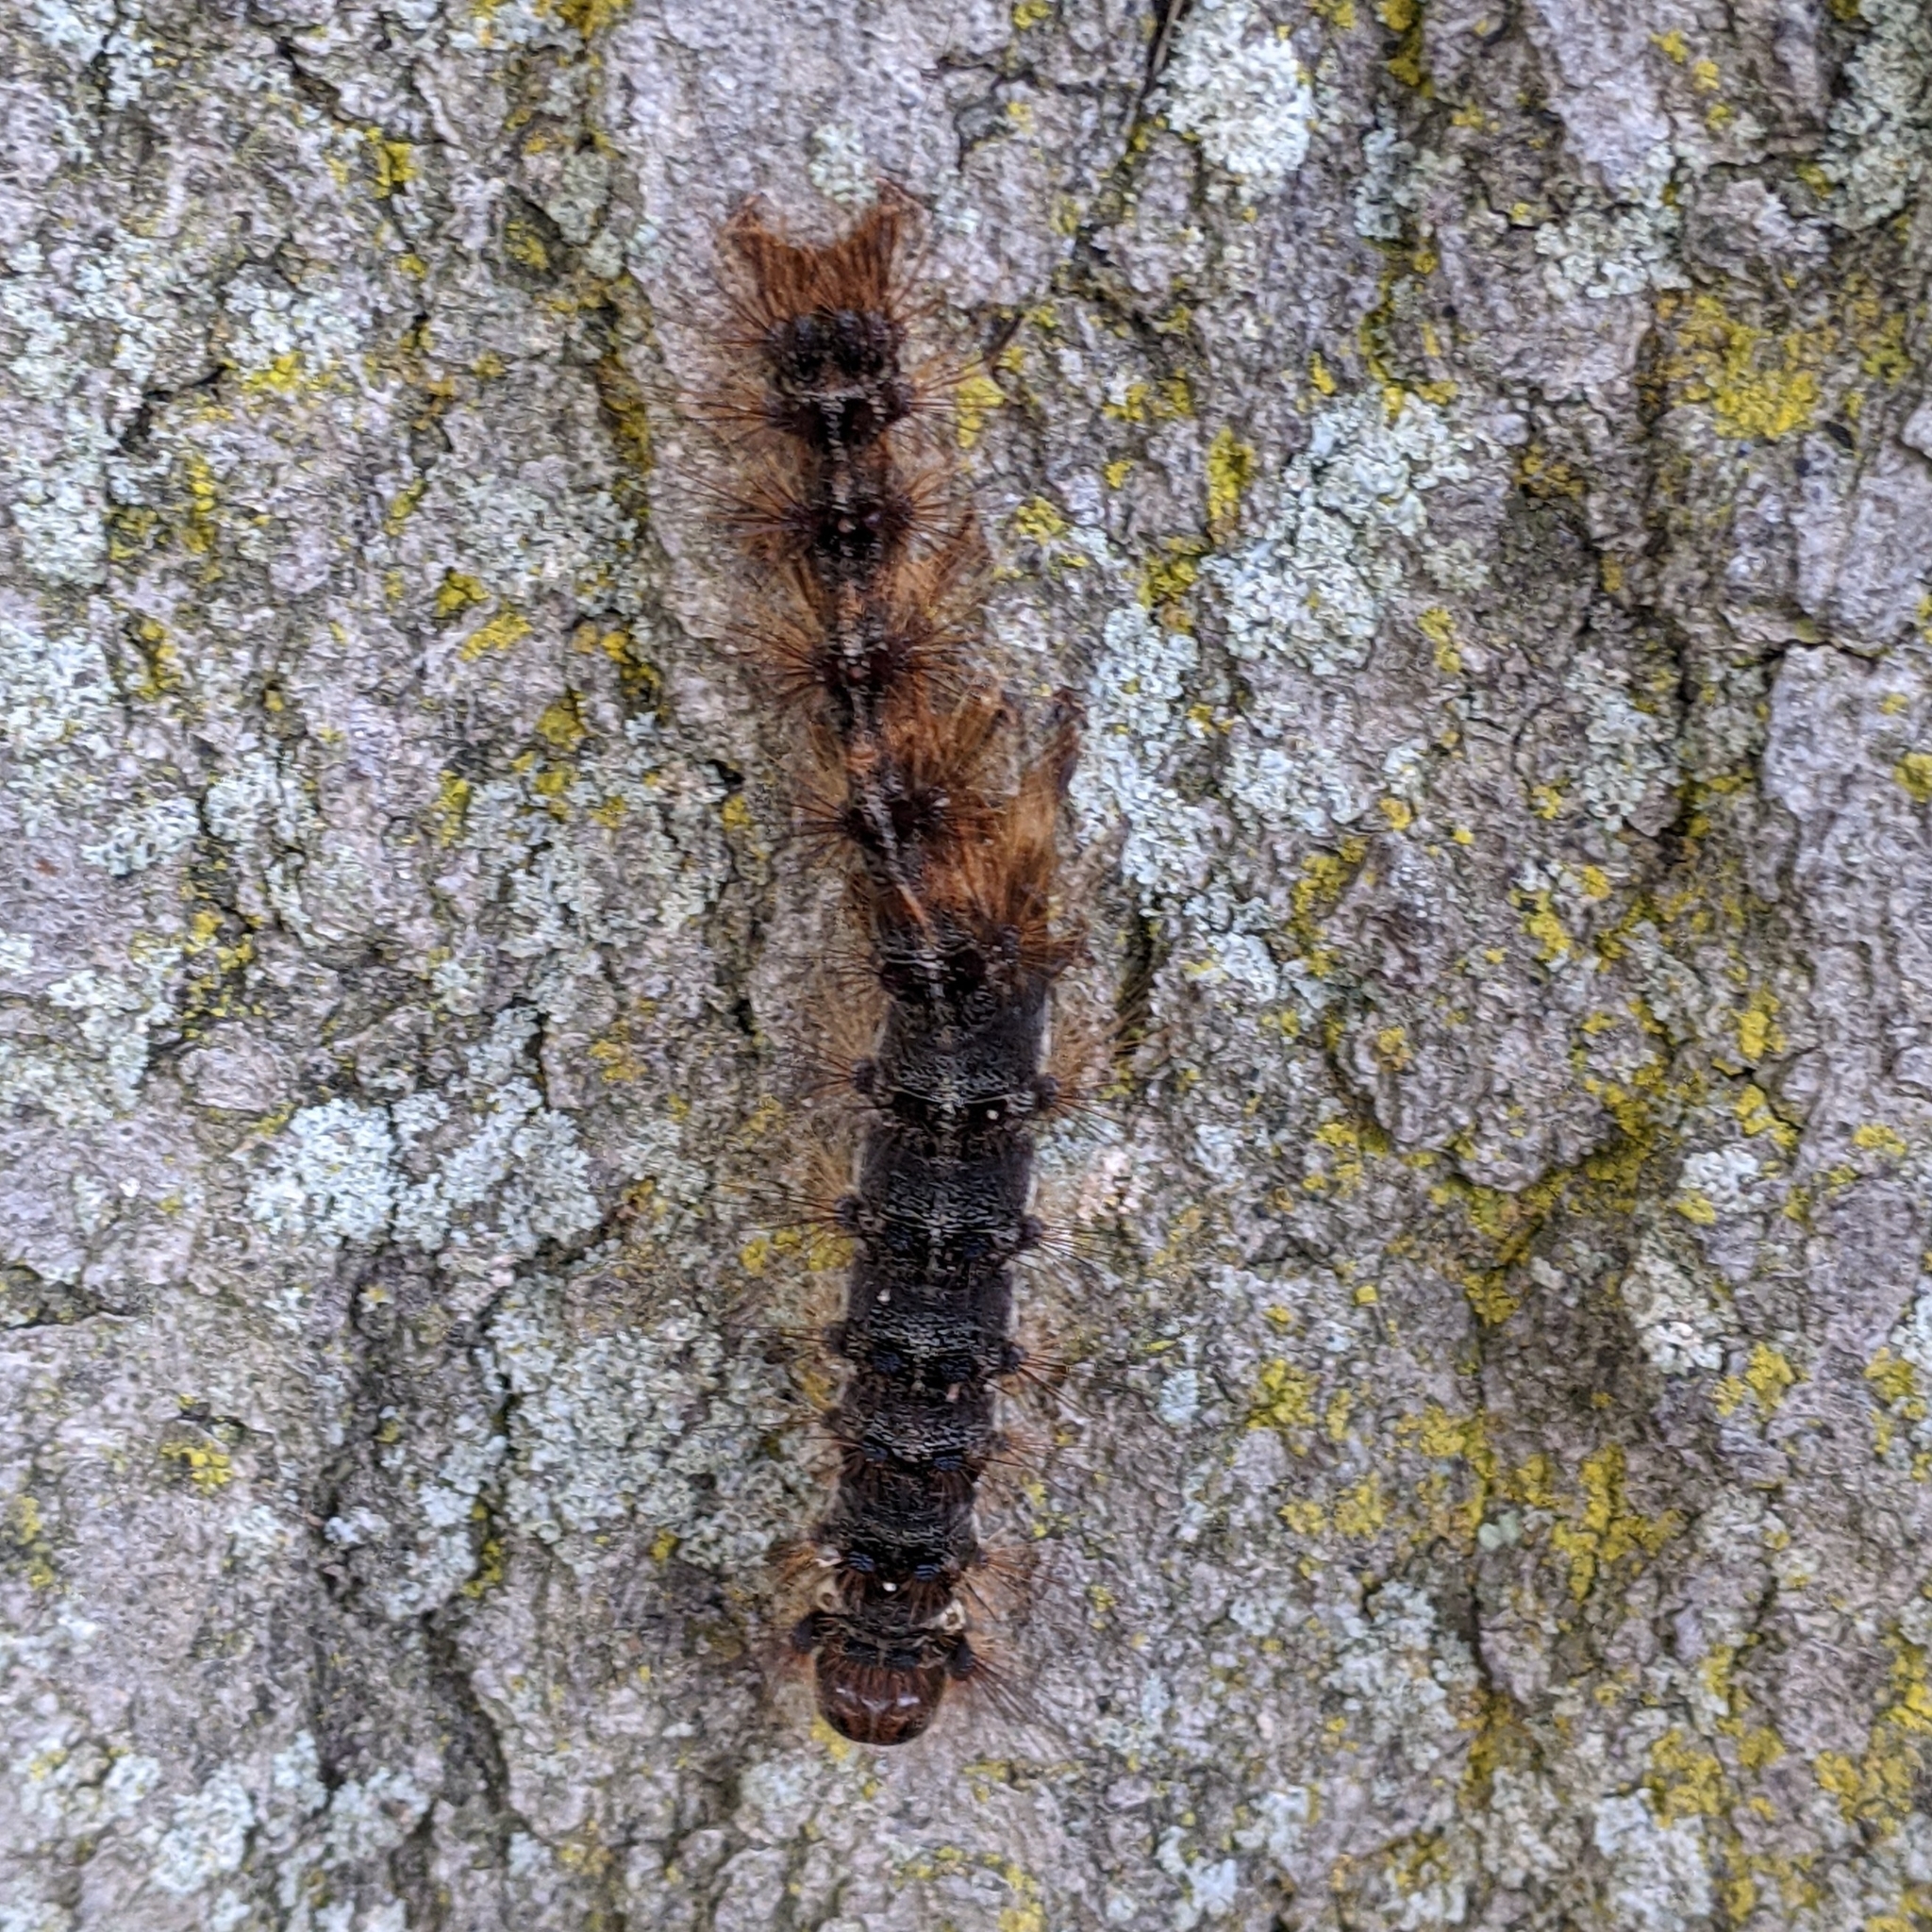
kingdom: Animalia
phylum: Arthropoda
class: Insecta
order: Lepidoptera
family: Erebidae
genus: Lymantria
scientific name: Lymantria dispar
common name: Gypsy moth
